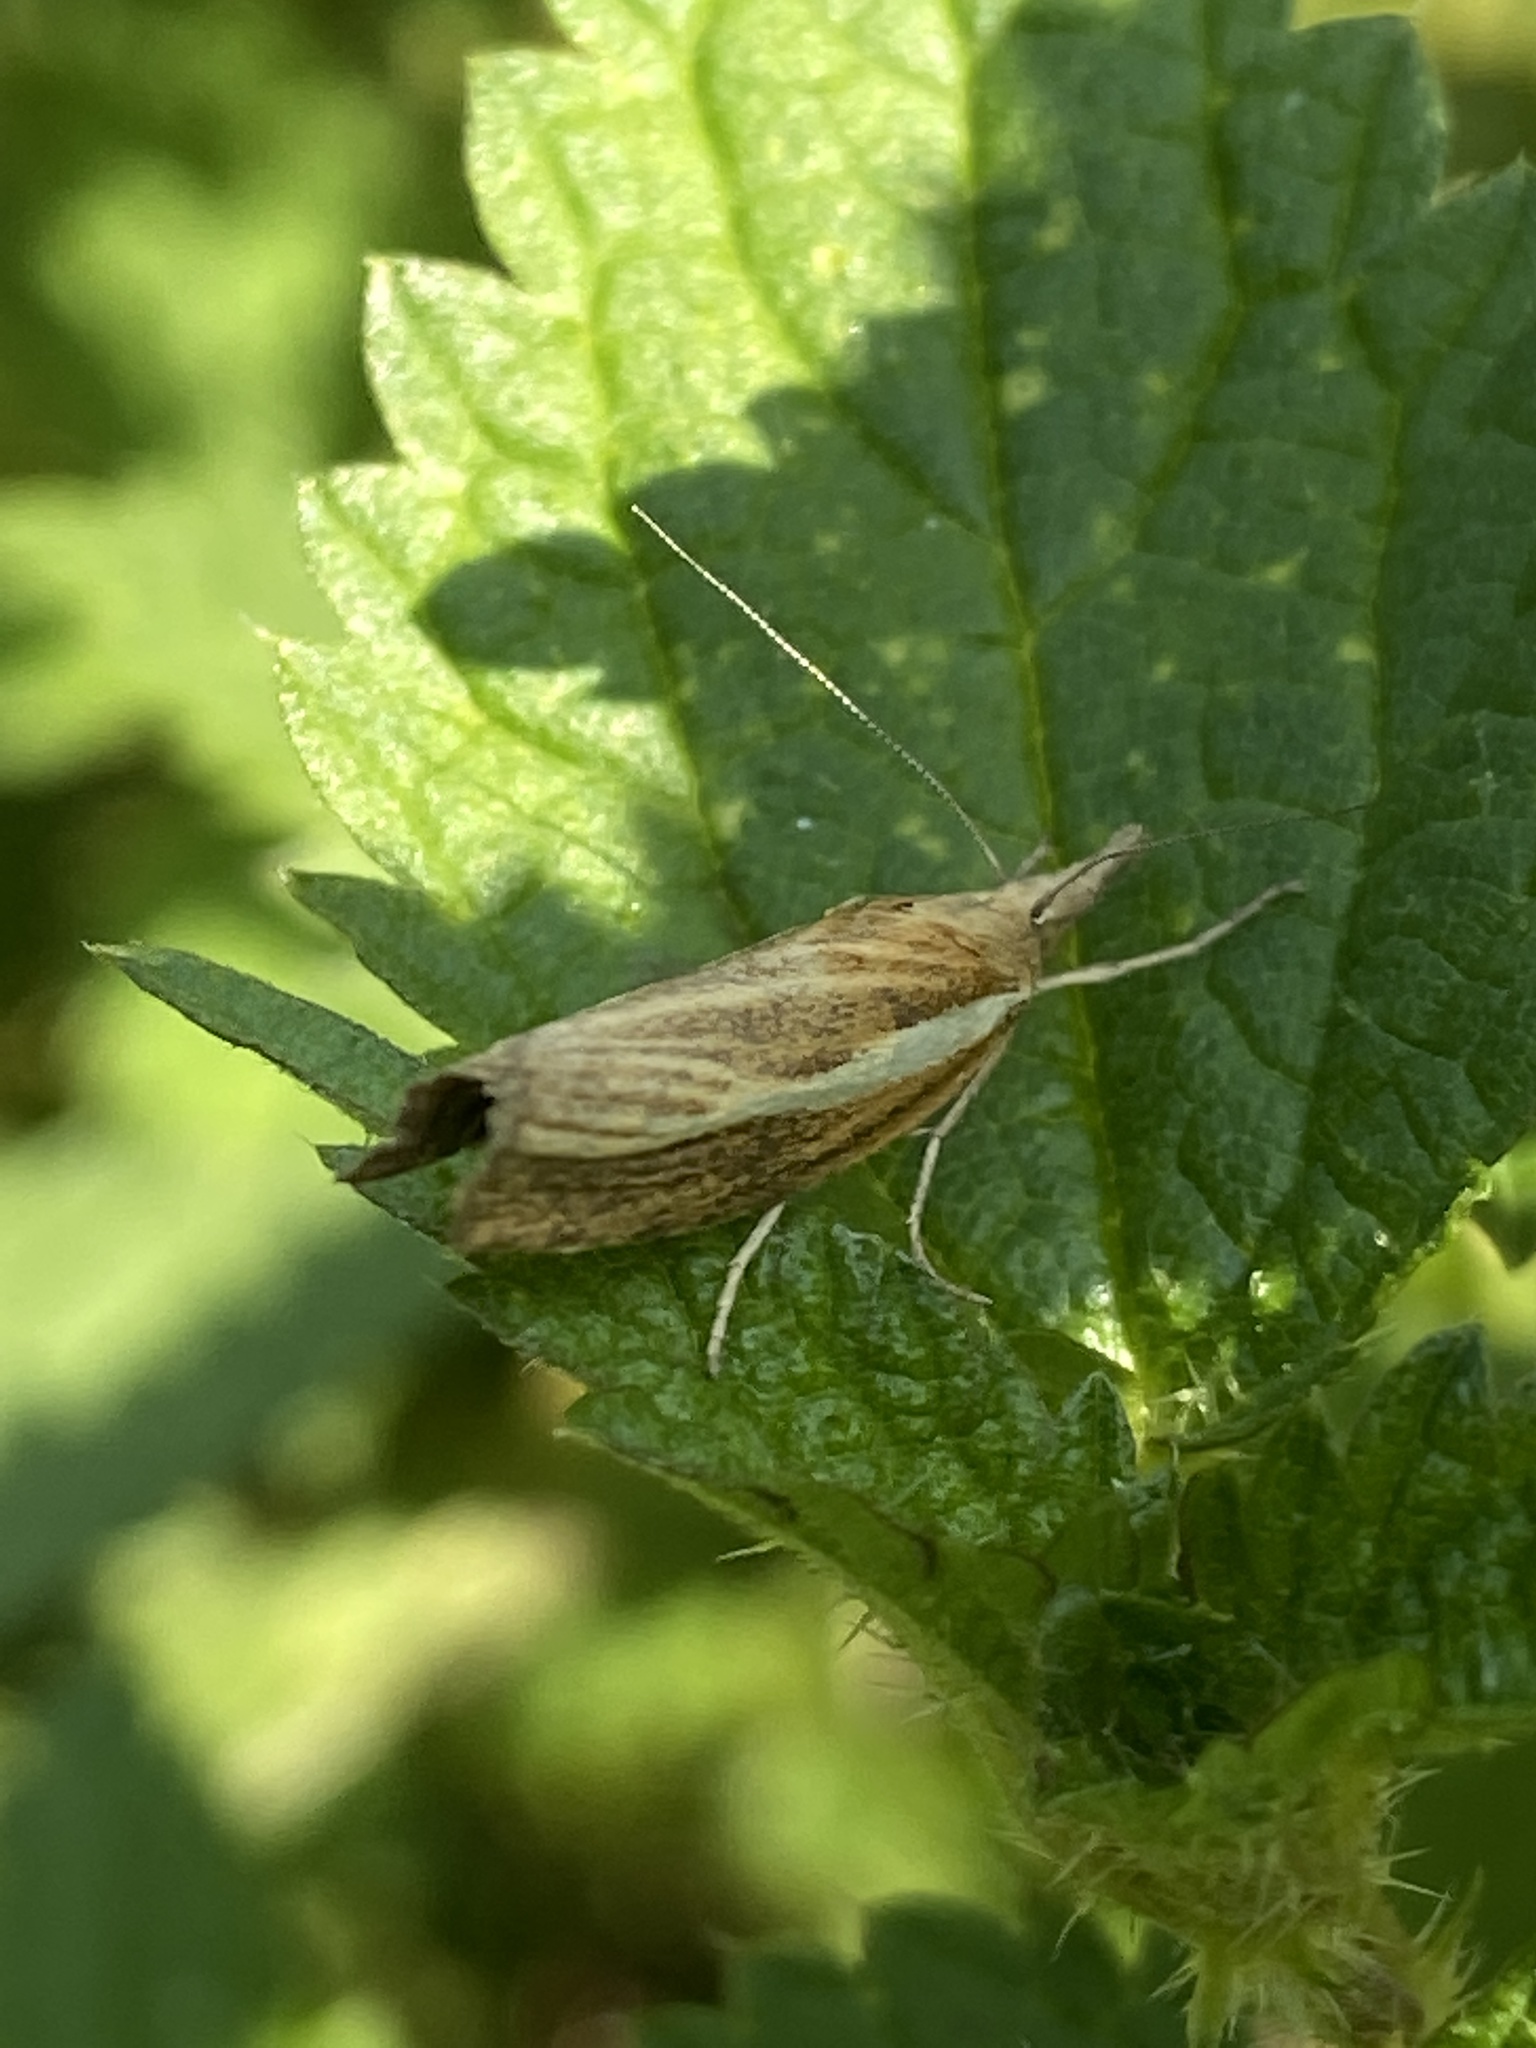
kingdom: Animalia
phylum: Arthropoda
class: Insecta
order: Lepidoptera
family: Crambidae
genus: Agriphila
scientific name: Agriphila tristellus
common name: Common grass-veneer
